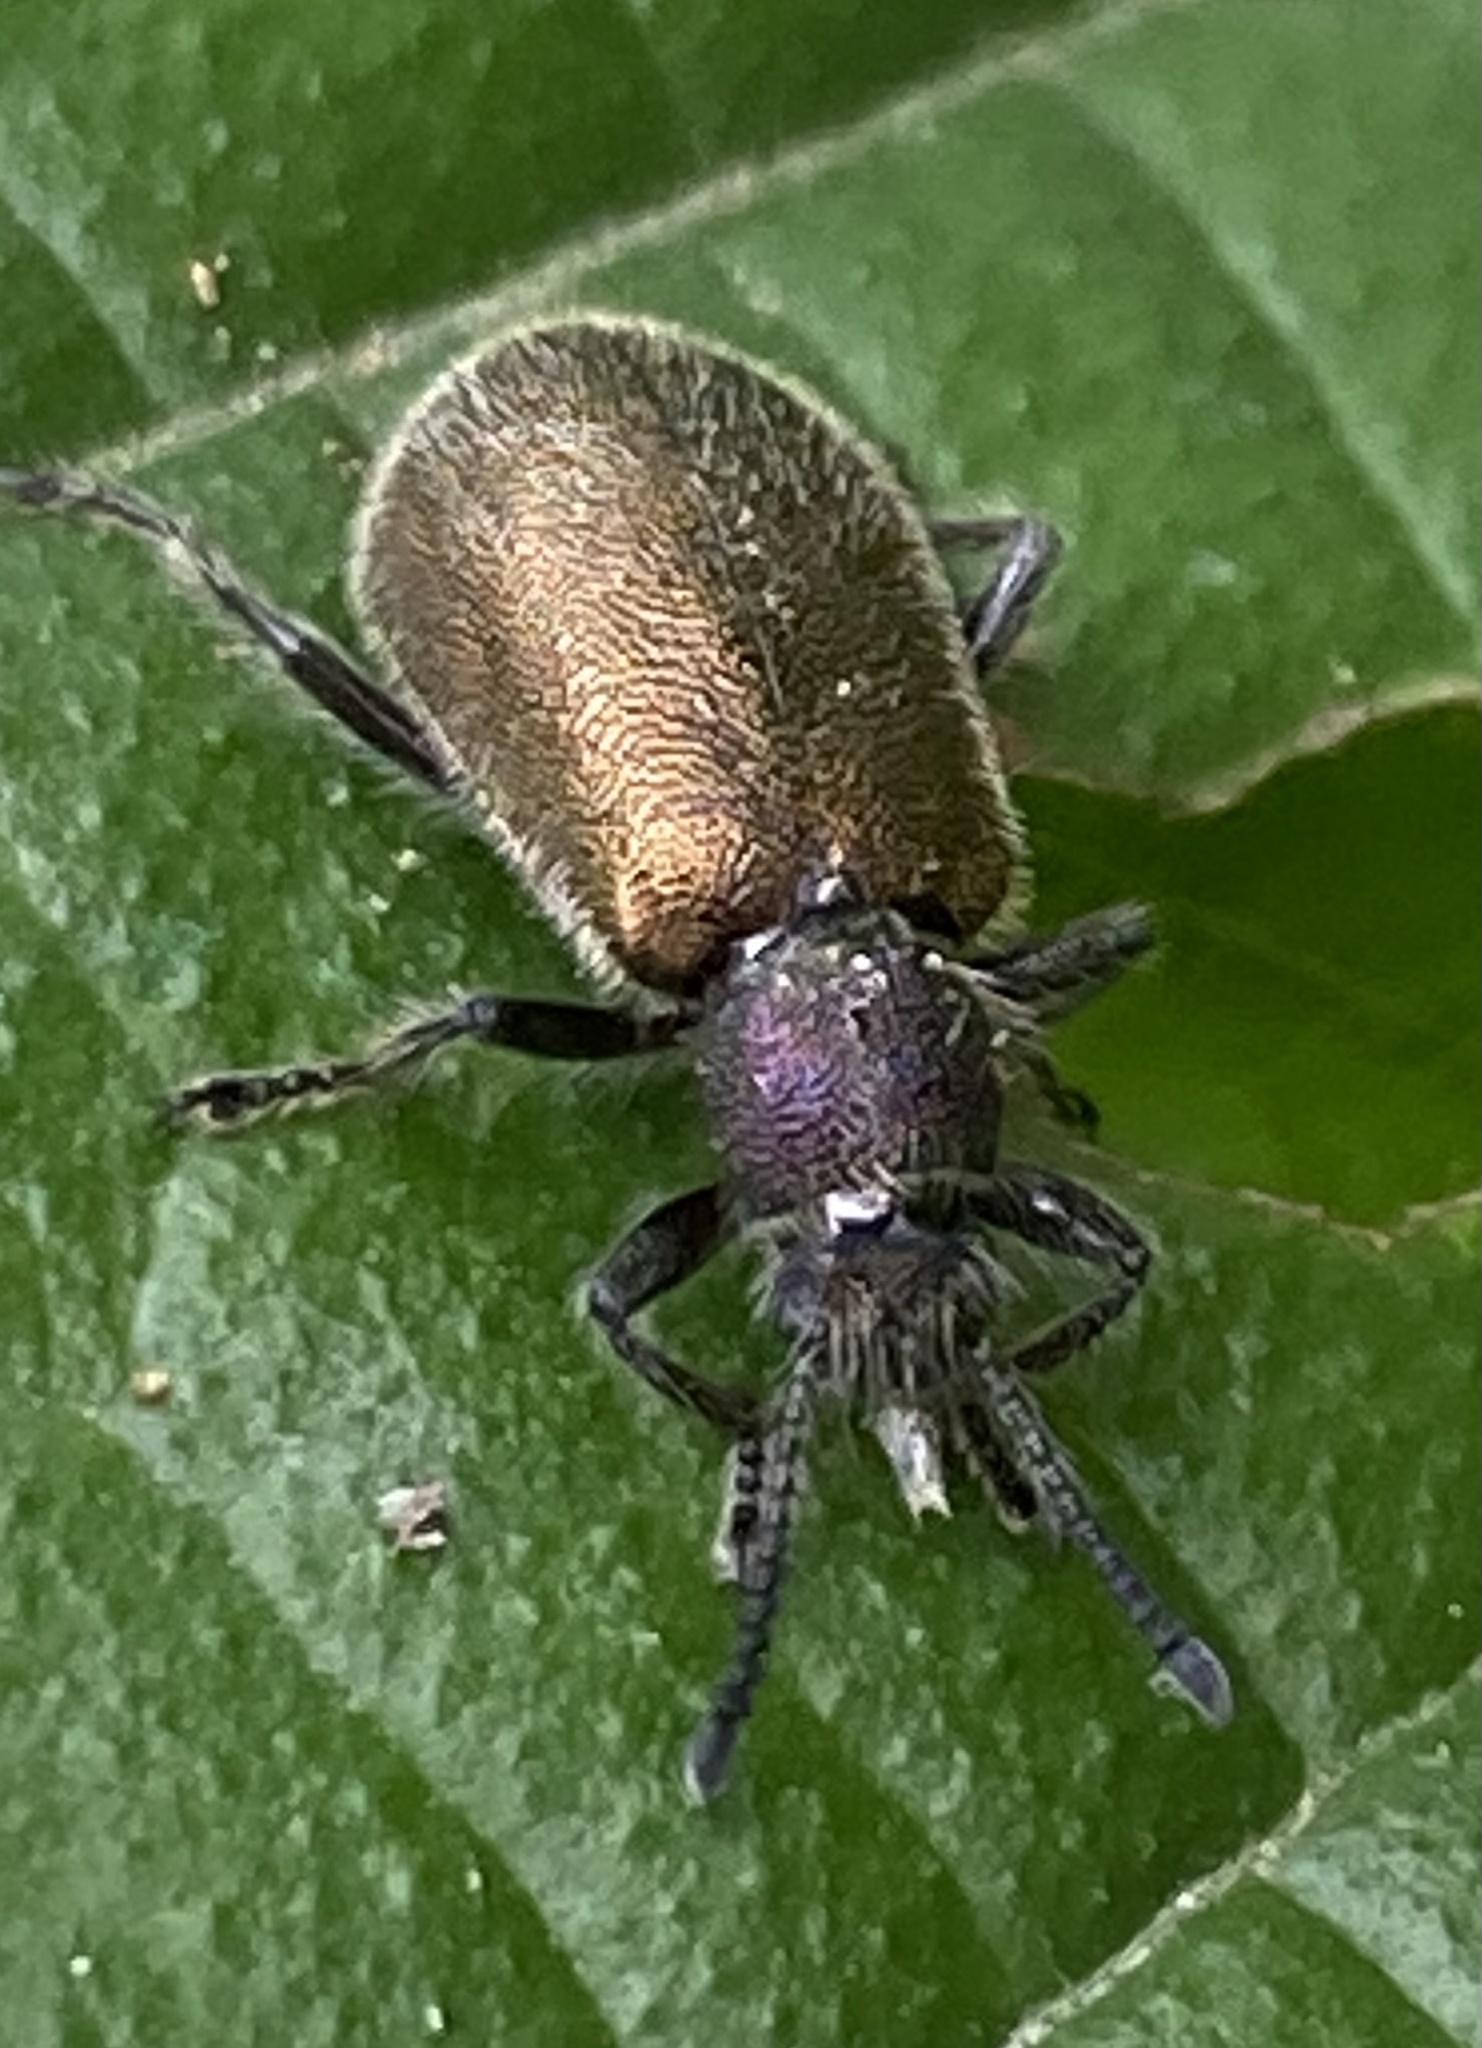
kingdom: Animalia
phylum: Arthropoda
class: Insecta
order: Coleoptera
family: Tenebrionidae
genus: Lagria
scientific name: Lagria villosa
